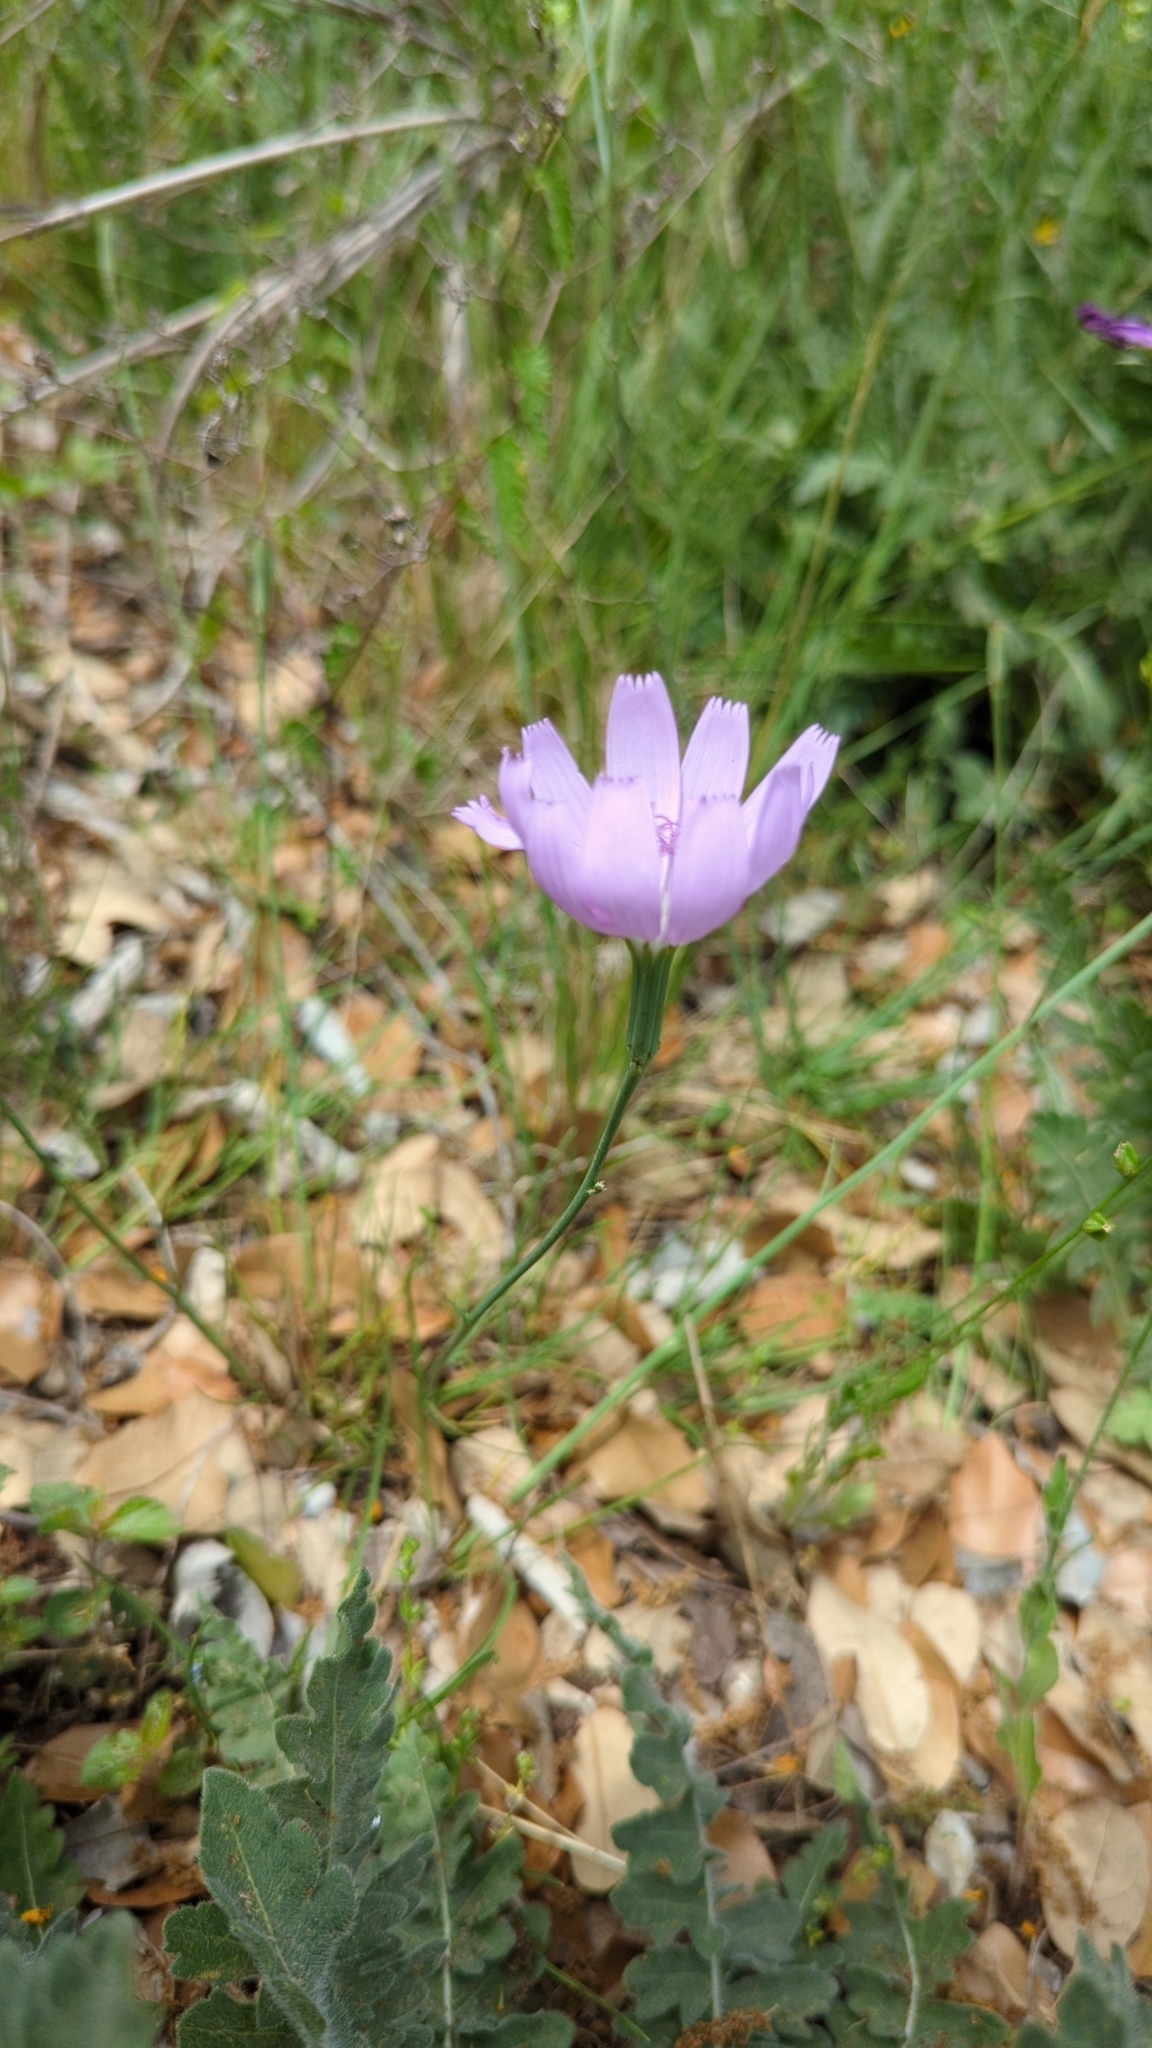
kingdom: Plantae
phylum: Tracheophyta
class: Magnoliopsida
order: Asterales
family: Asteraceae
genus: Lygodesmia
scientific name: Lygodesmia texana
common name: Texas skeleton-plant
